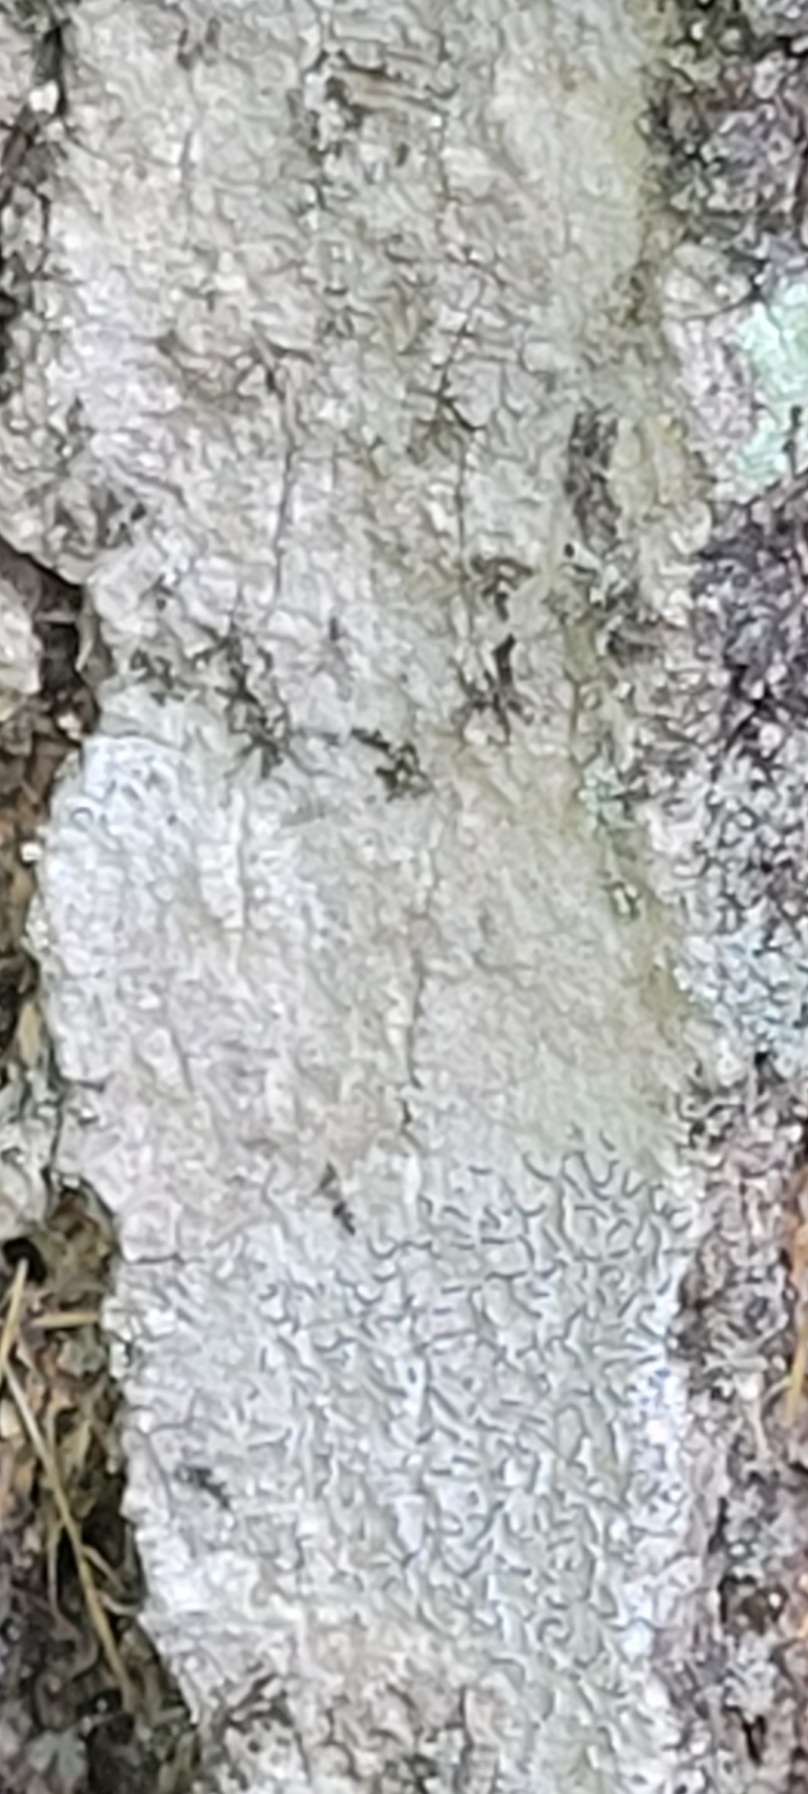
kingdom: Fungi
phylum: Ascomycota
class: Lecanoromycetes
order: Ostropales
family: Graphidaceae
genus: Graphis
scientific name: Graphis scripta
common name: Script lichen
